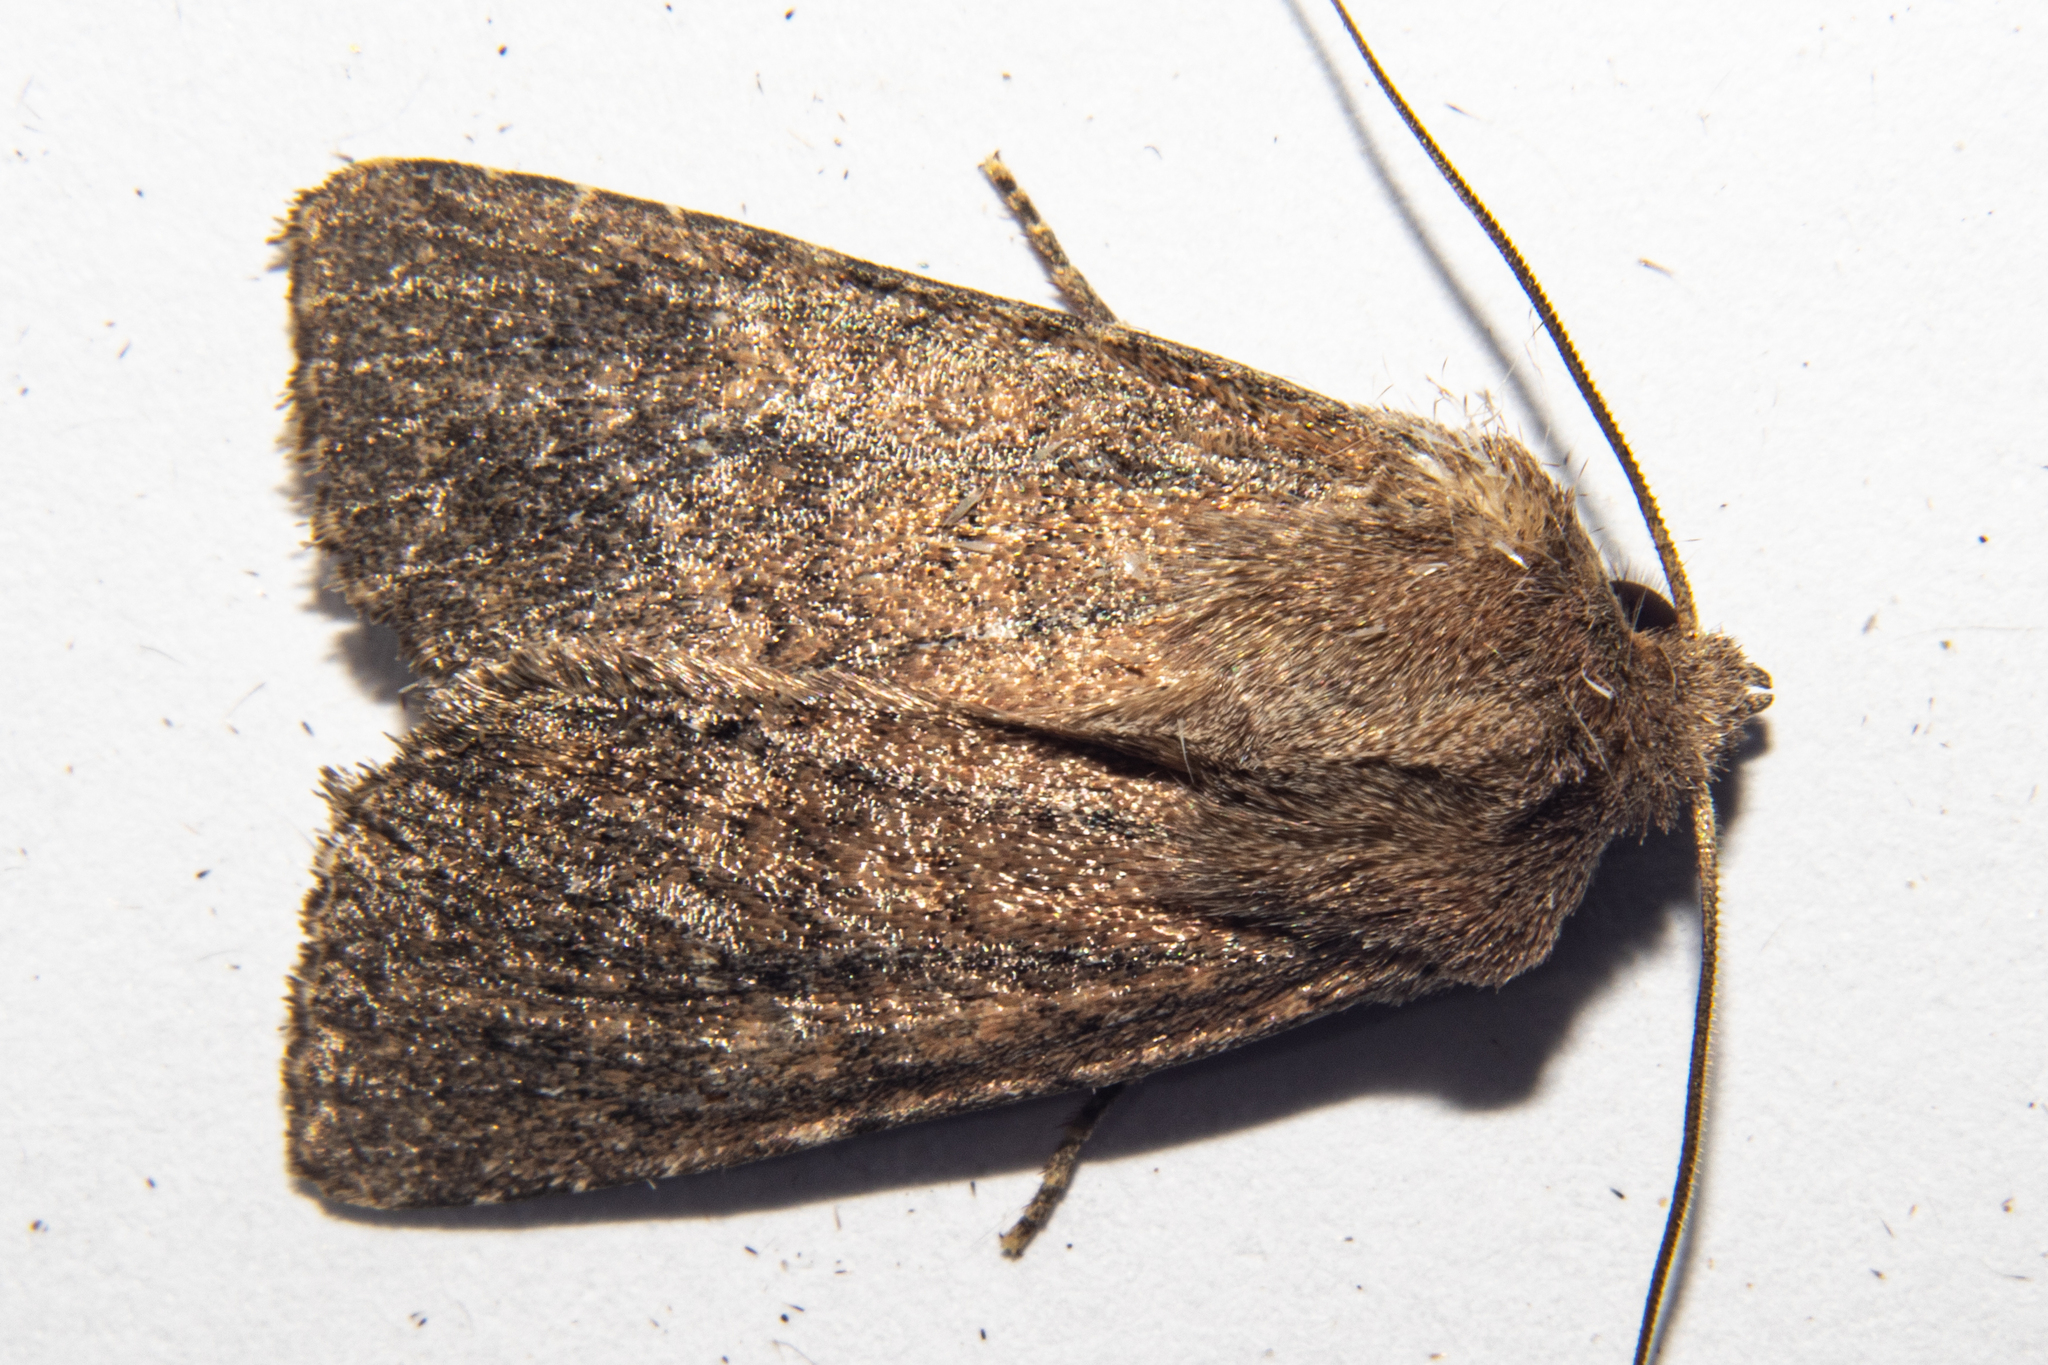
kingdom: Animalia
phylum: Arthropoda
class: Insecta
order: Lepidoptera
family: Noctuidae
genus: Physetica
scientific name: Physetica
